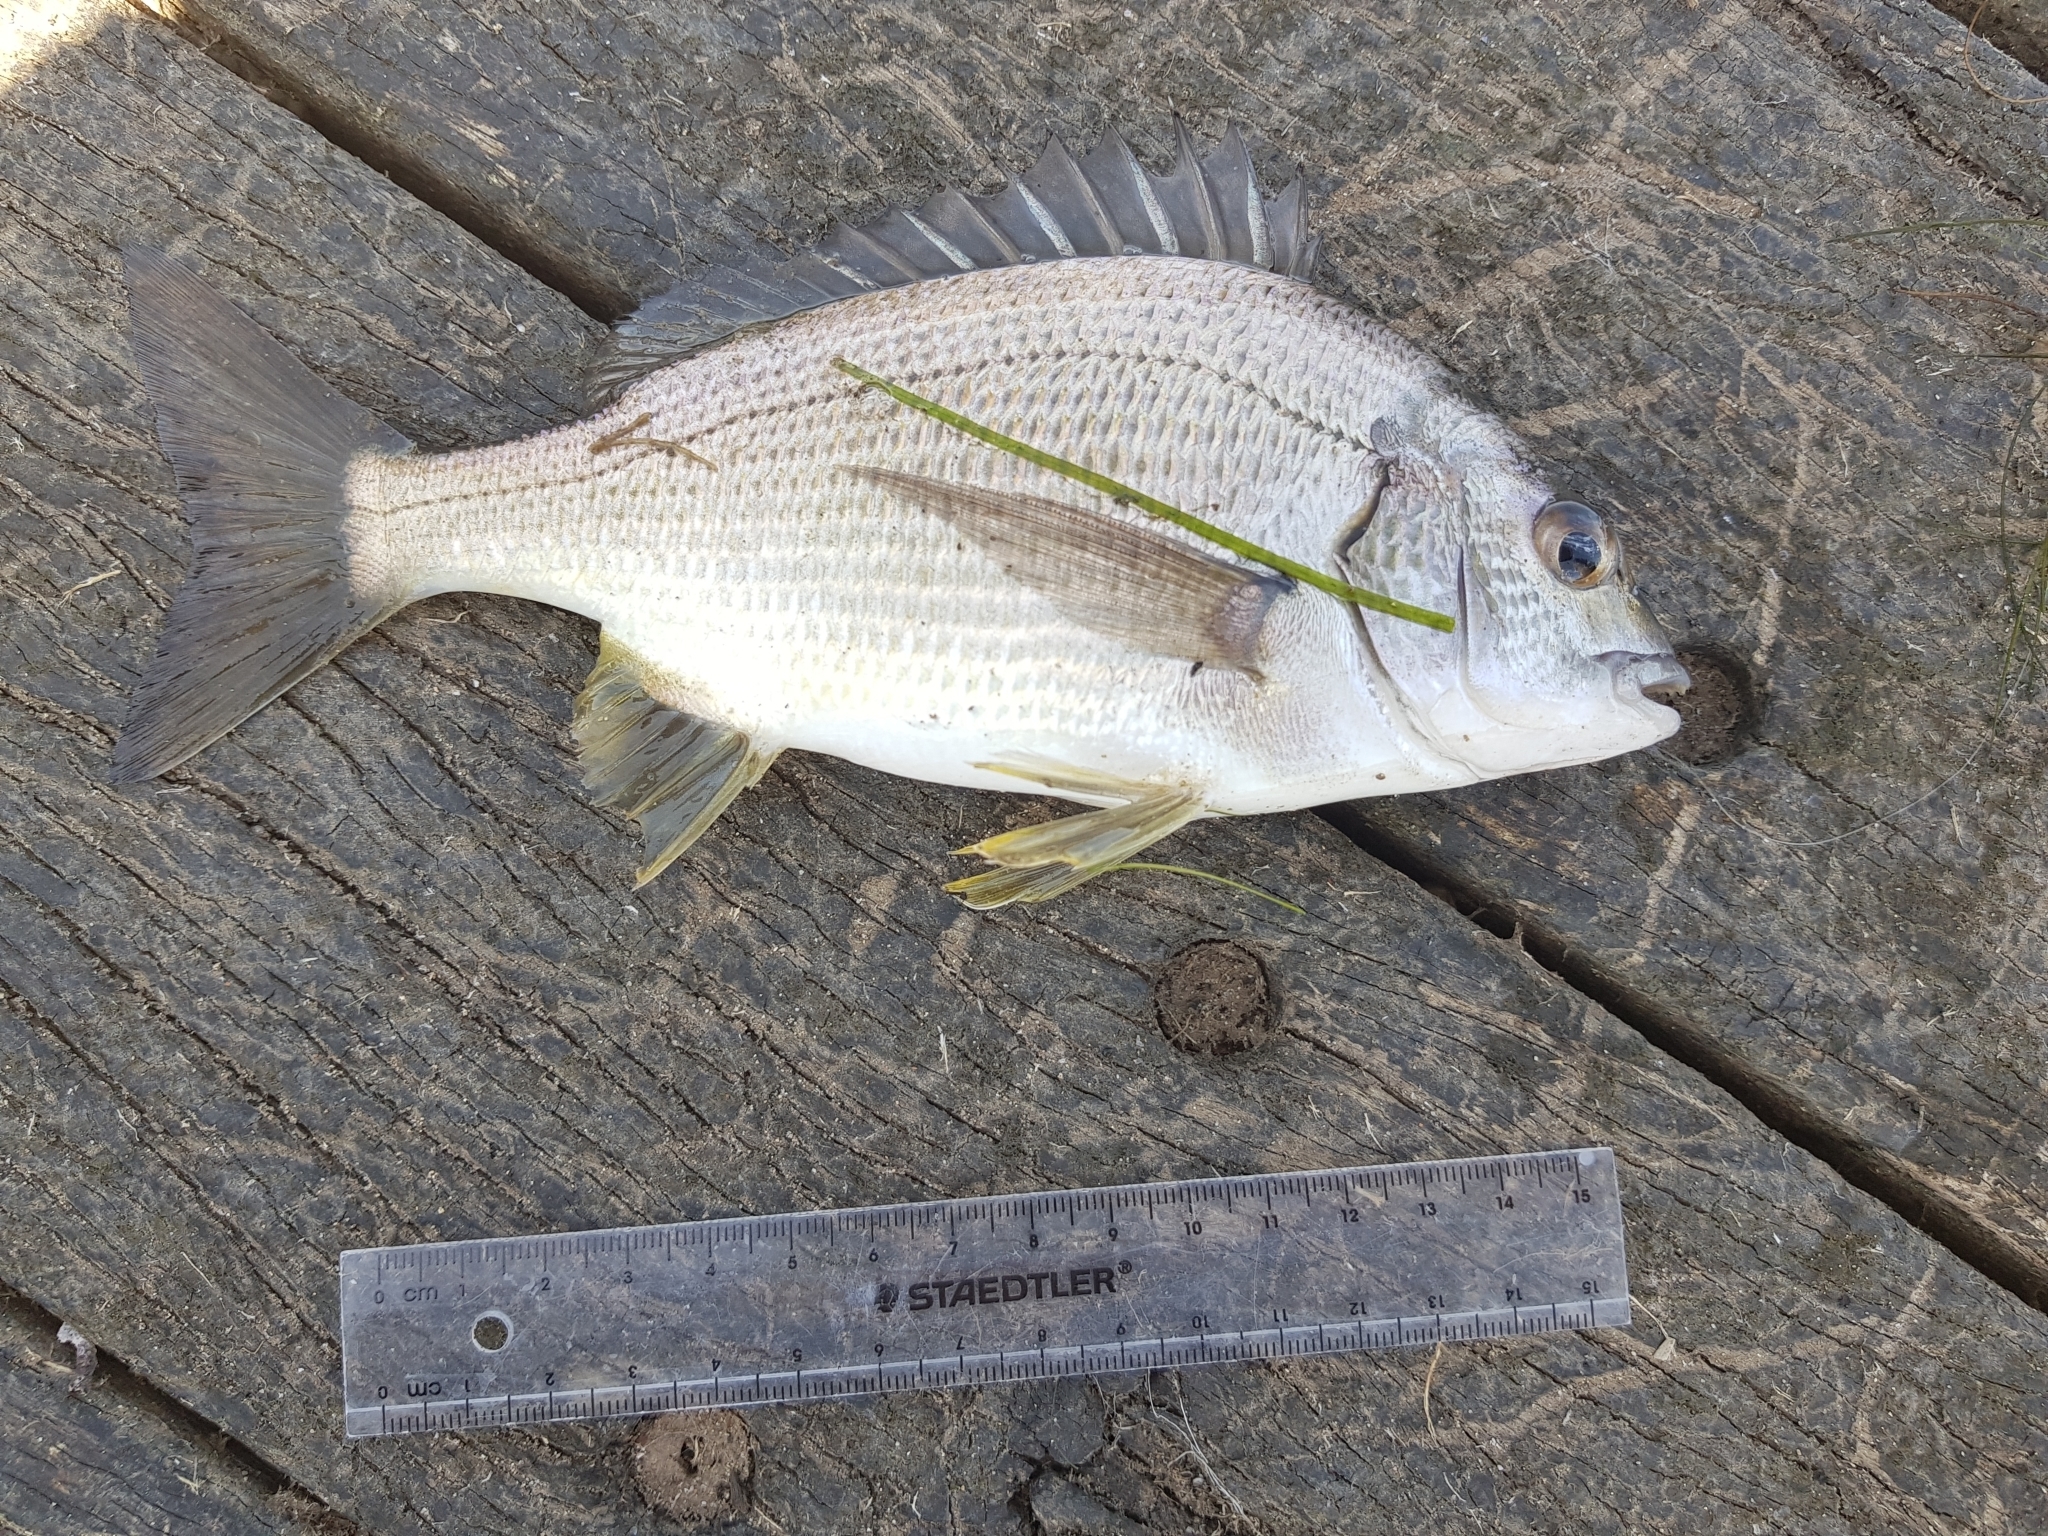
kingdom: Animalia
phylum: Chordata
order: Perciformes
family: Sparidae
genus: Acanthopagrus
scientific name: Acanthopagrus butcheri
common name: Black bream
